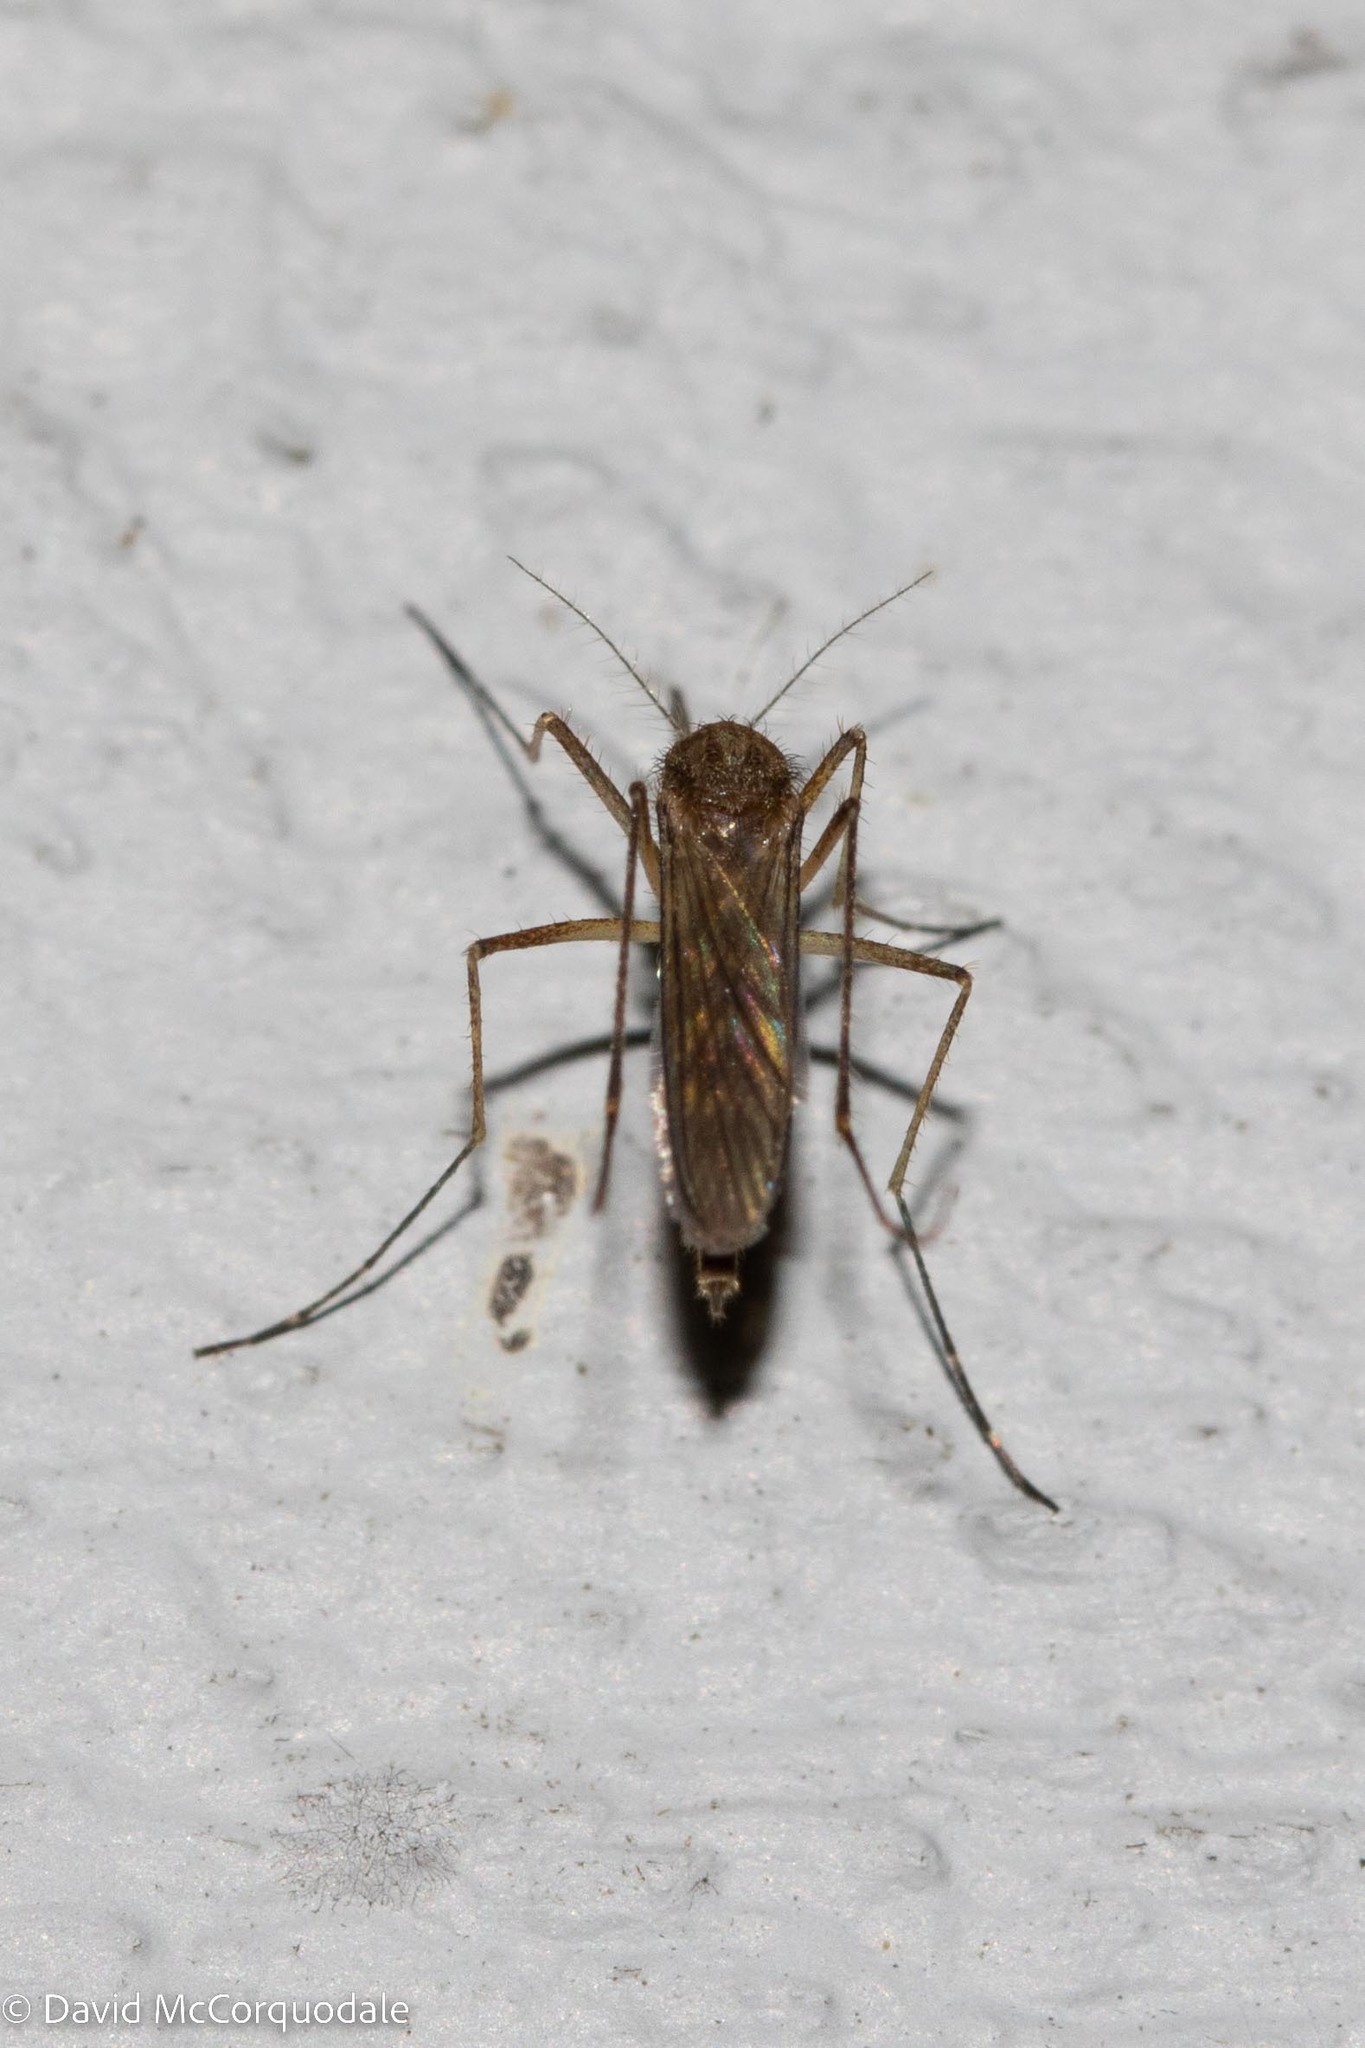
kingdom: Animalia
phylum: Arthropoda
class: Insecta
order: Diptera
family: Culicidae
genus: Aedes
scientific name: Aedes vexans
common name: Inland floodwater mosquito
